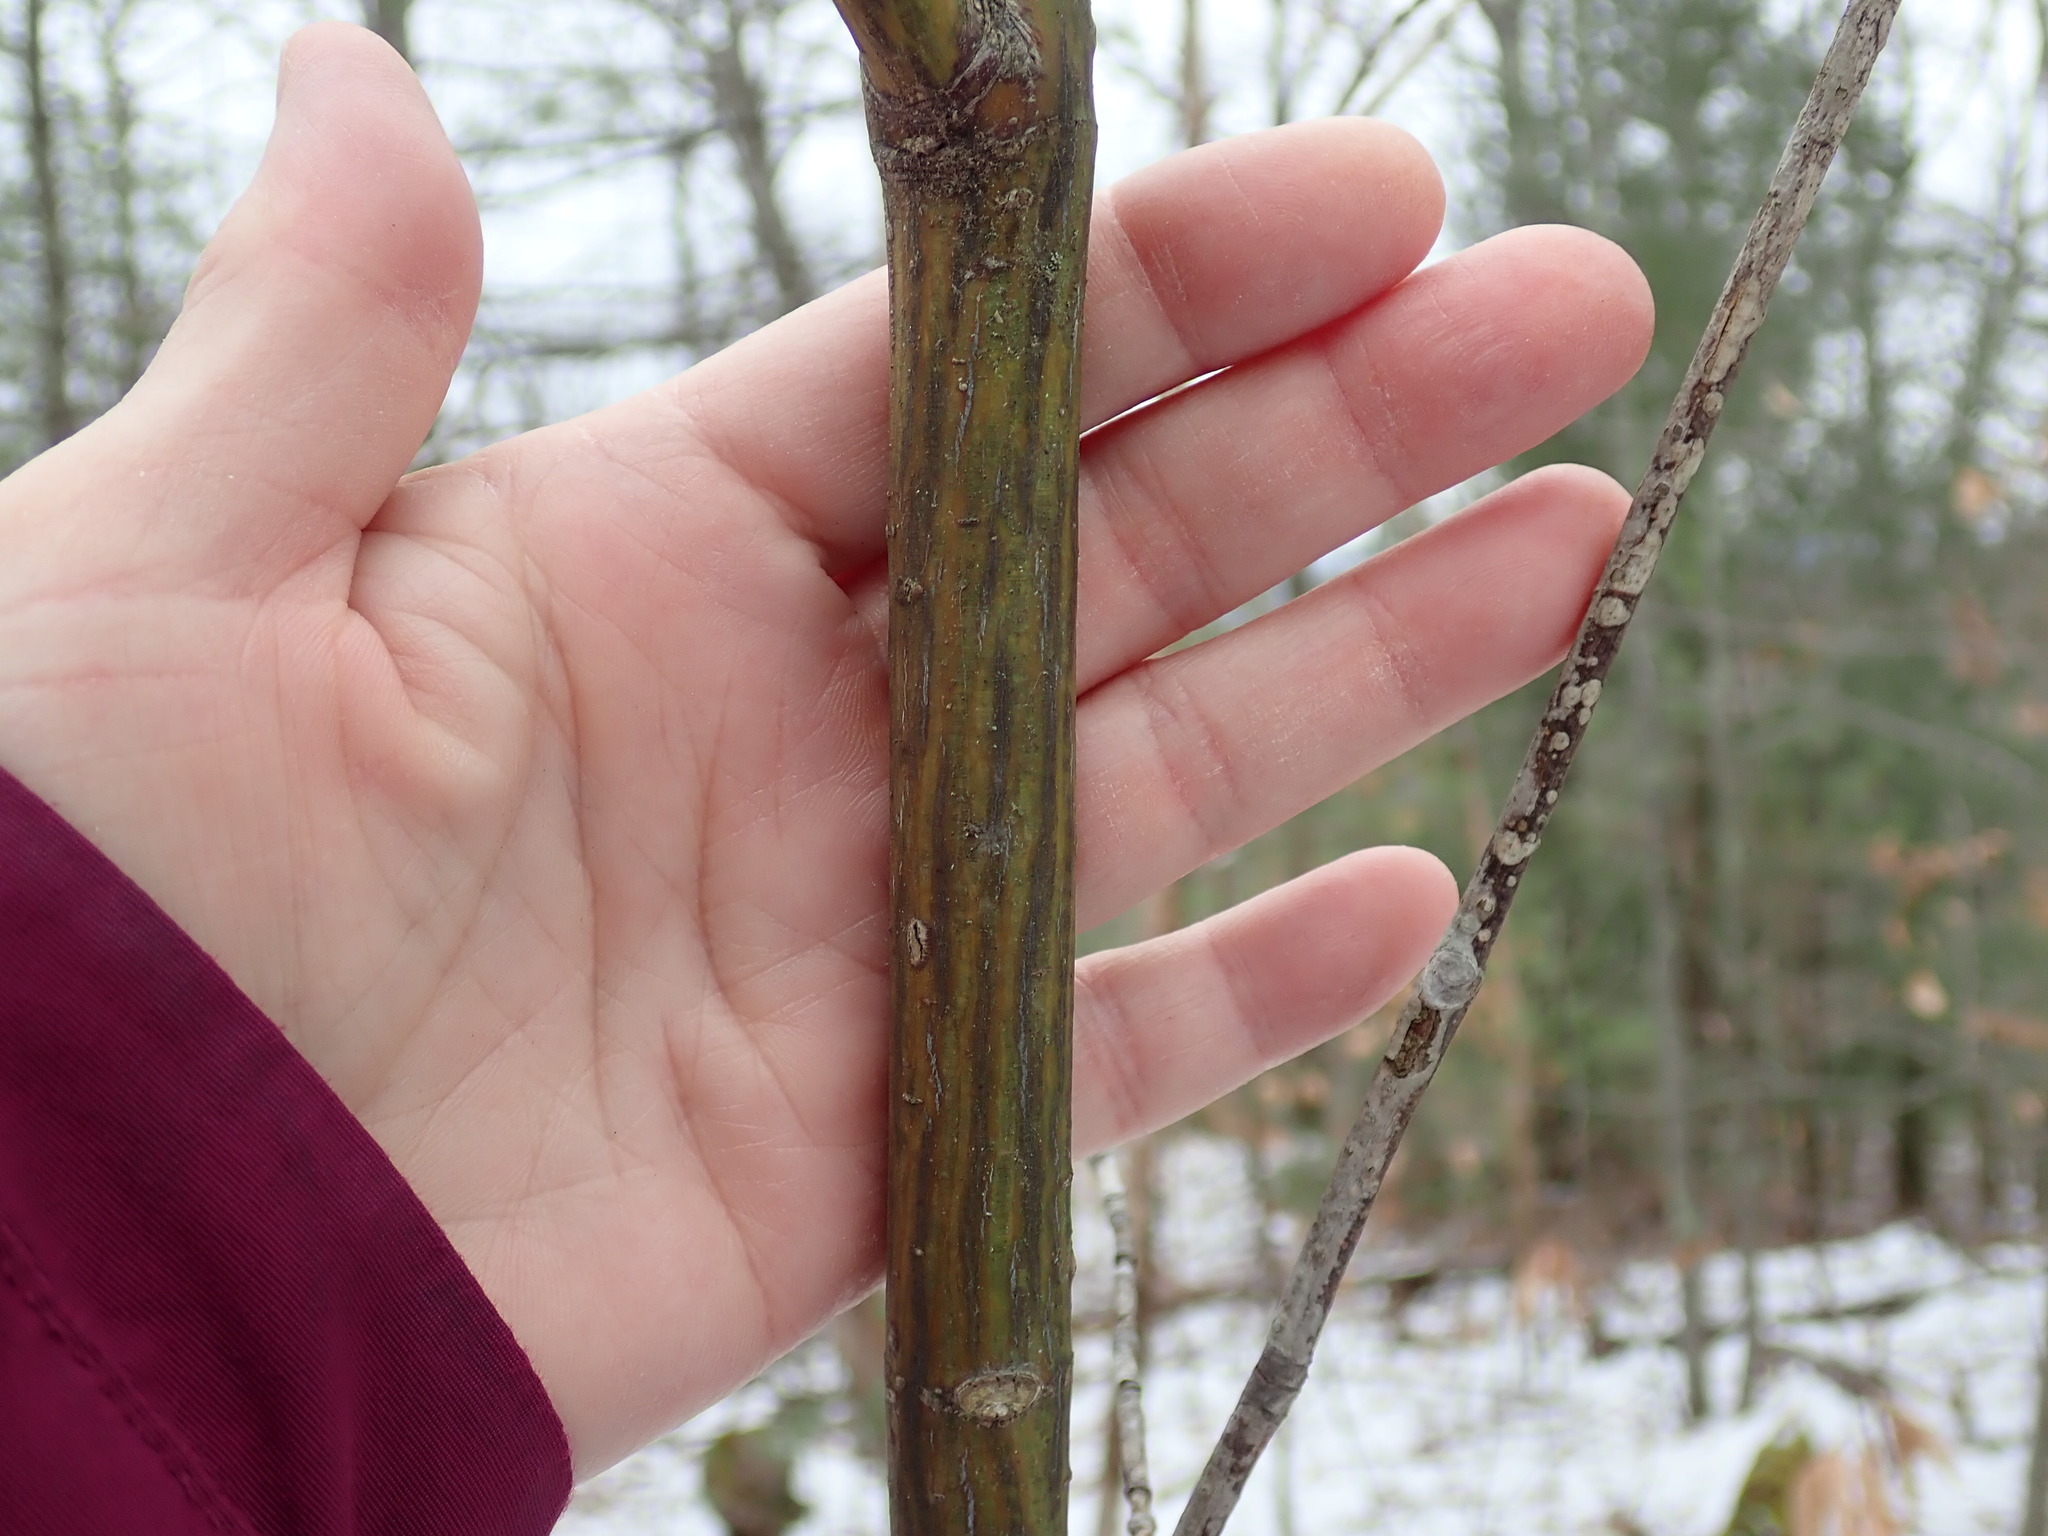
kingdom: Plantae
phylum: Tracheophyta
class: Magnoliopsida
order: Sapindales
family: Sapindaceae
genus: Acer
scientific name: Acer pensylvanicum
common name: Moosewood
